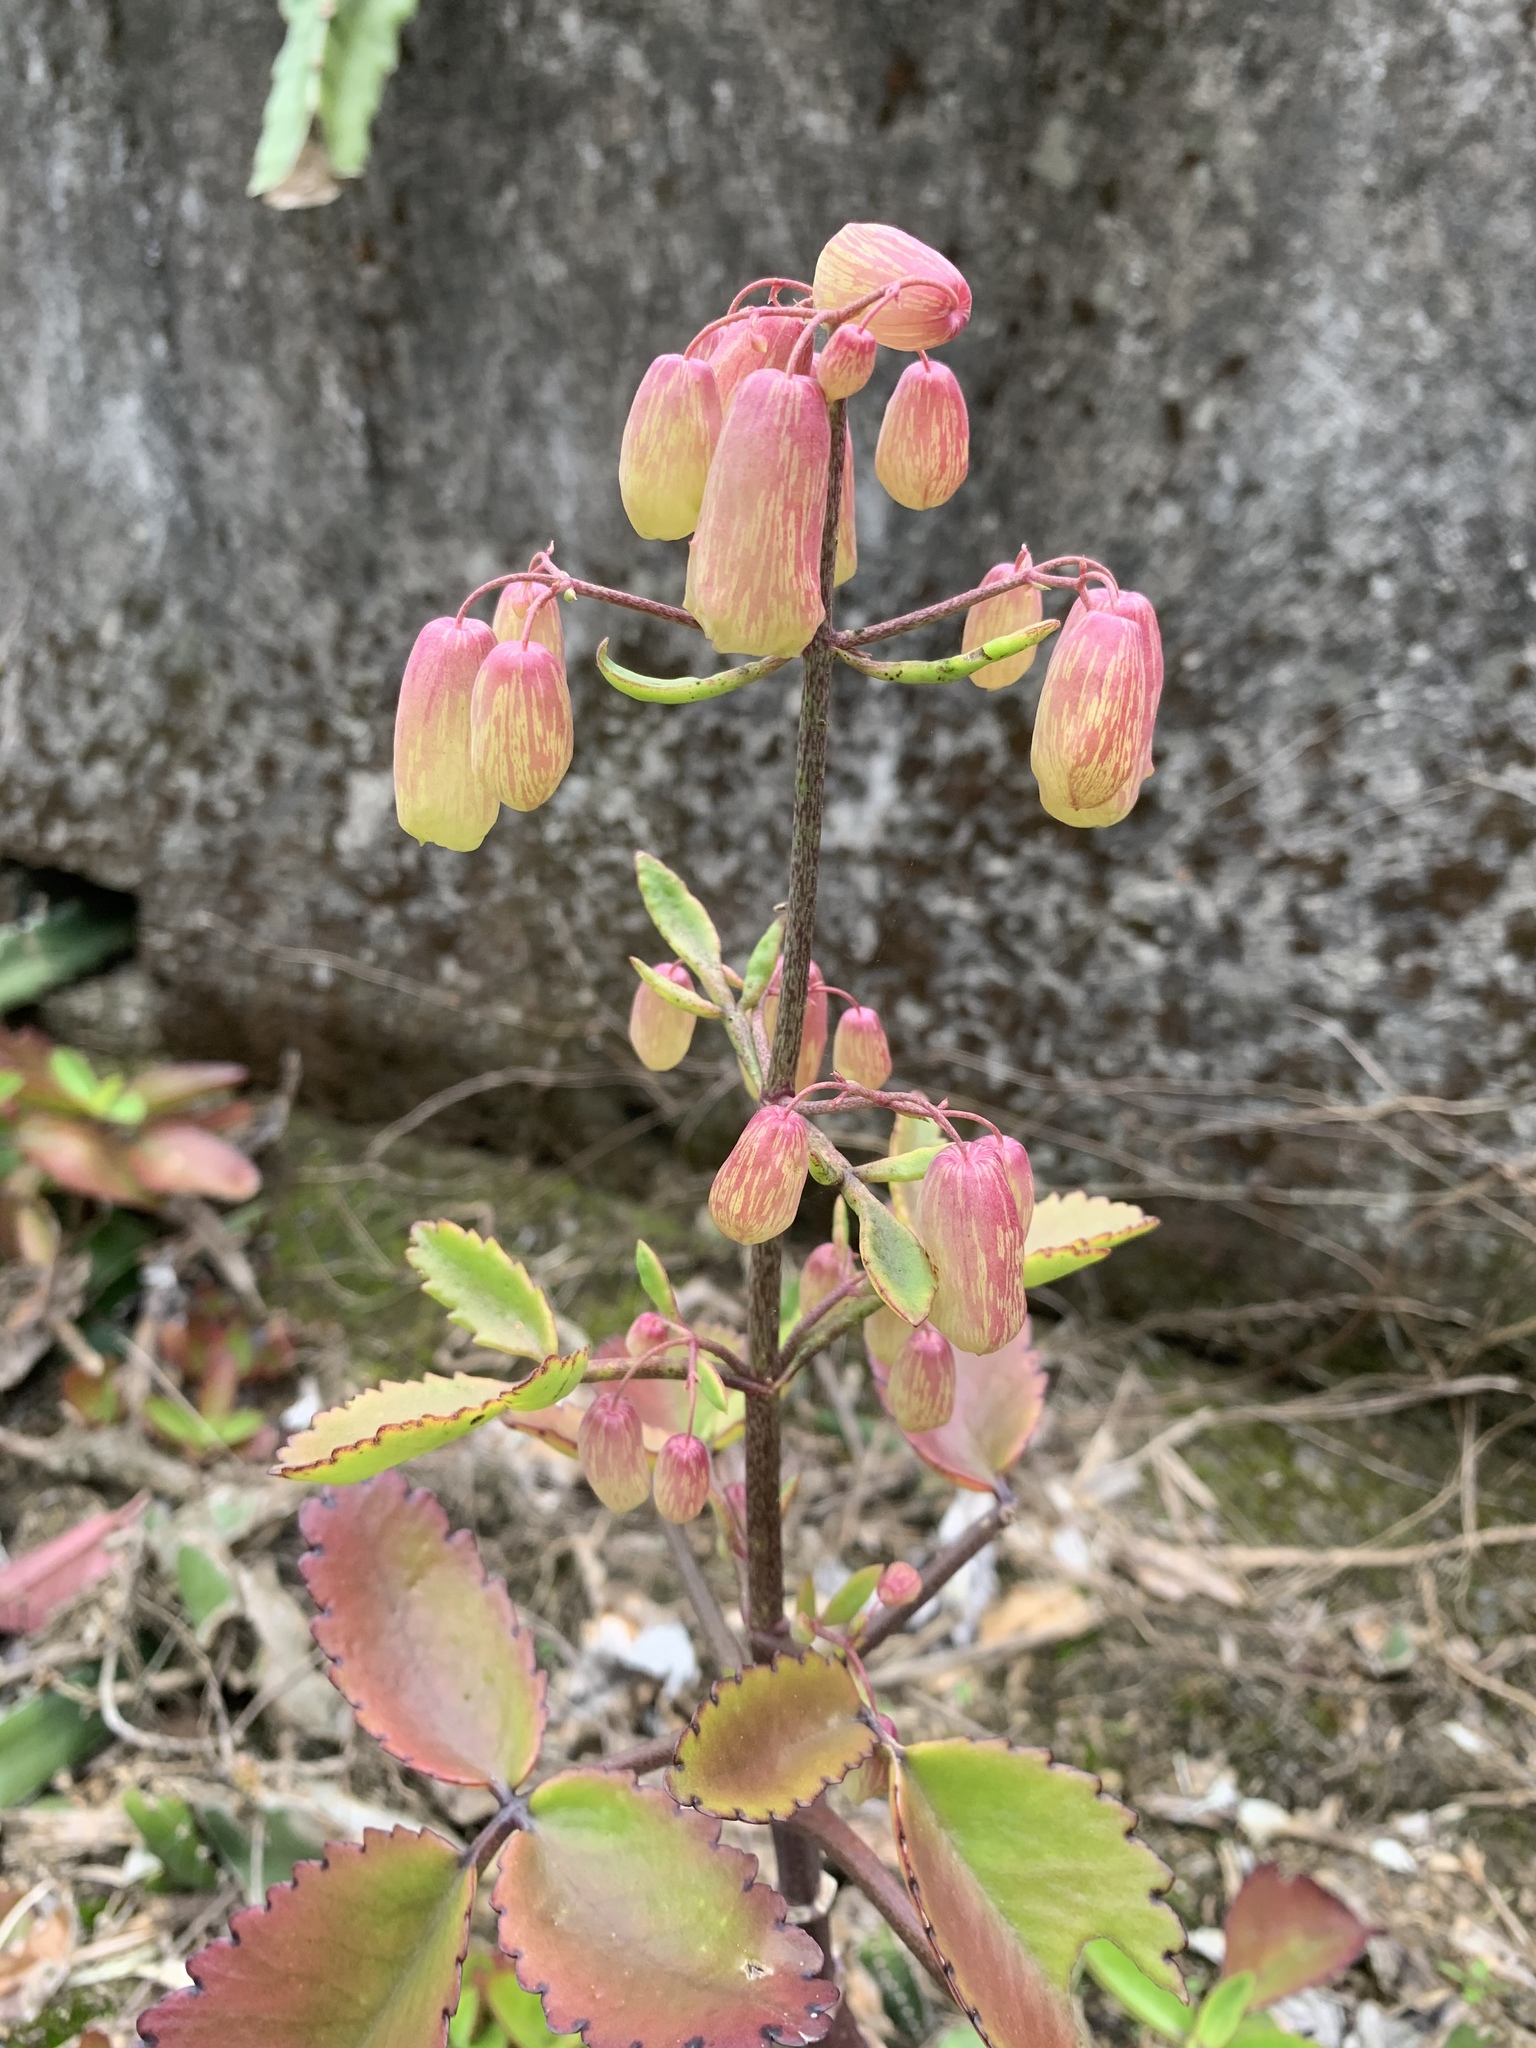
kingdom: Plantae
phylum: Tracheophyta
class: Magnoliopsida
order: Saxifragales
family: Crassulaceae
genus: Kalanchoe
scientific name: Kalanchoe pinnata
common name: Cathedral bells
